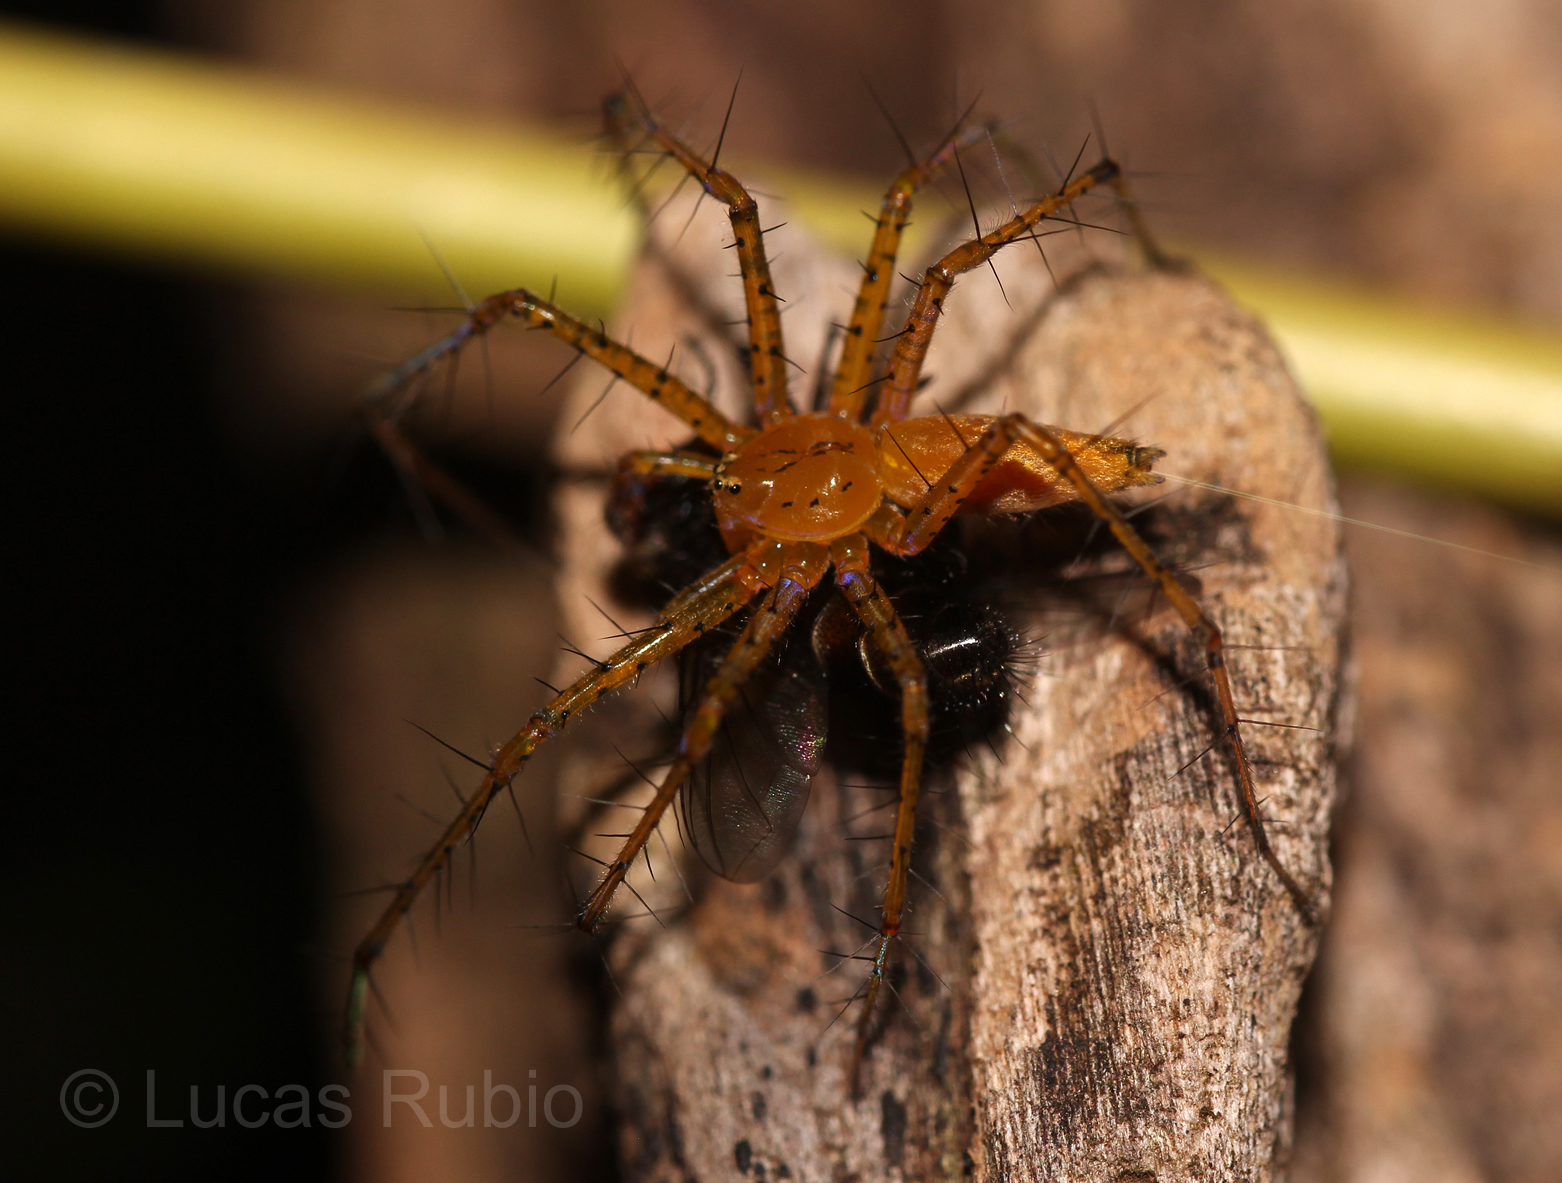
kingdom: Animalia
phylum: Arthropoda
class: Arachnida
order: Araneae
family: Pisauridae
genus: Architis
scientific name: Architis spinipes
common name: Nursery web spiders
